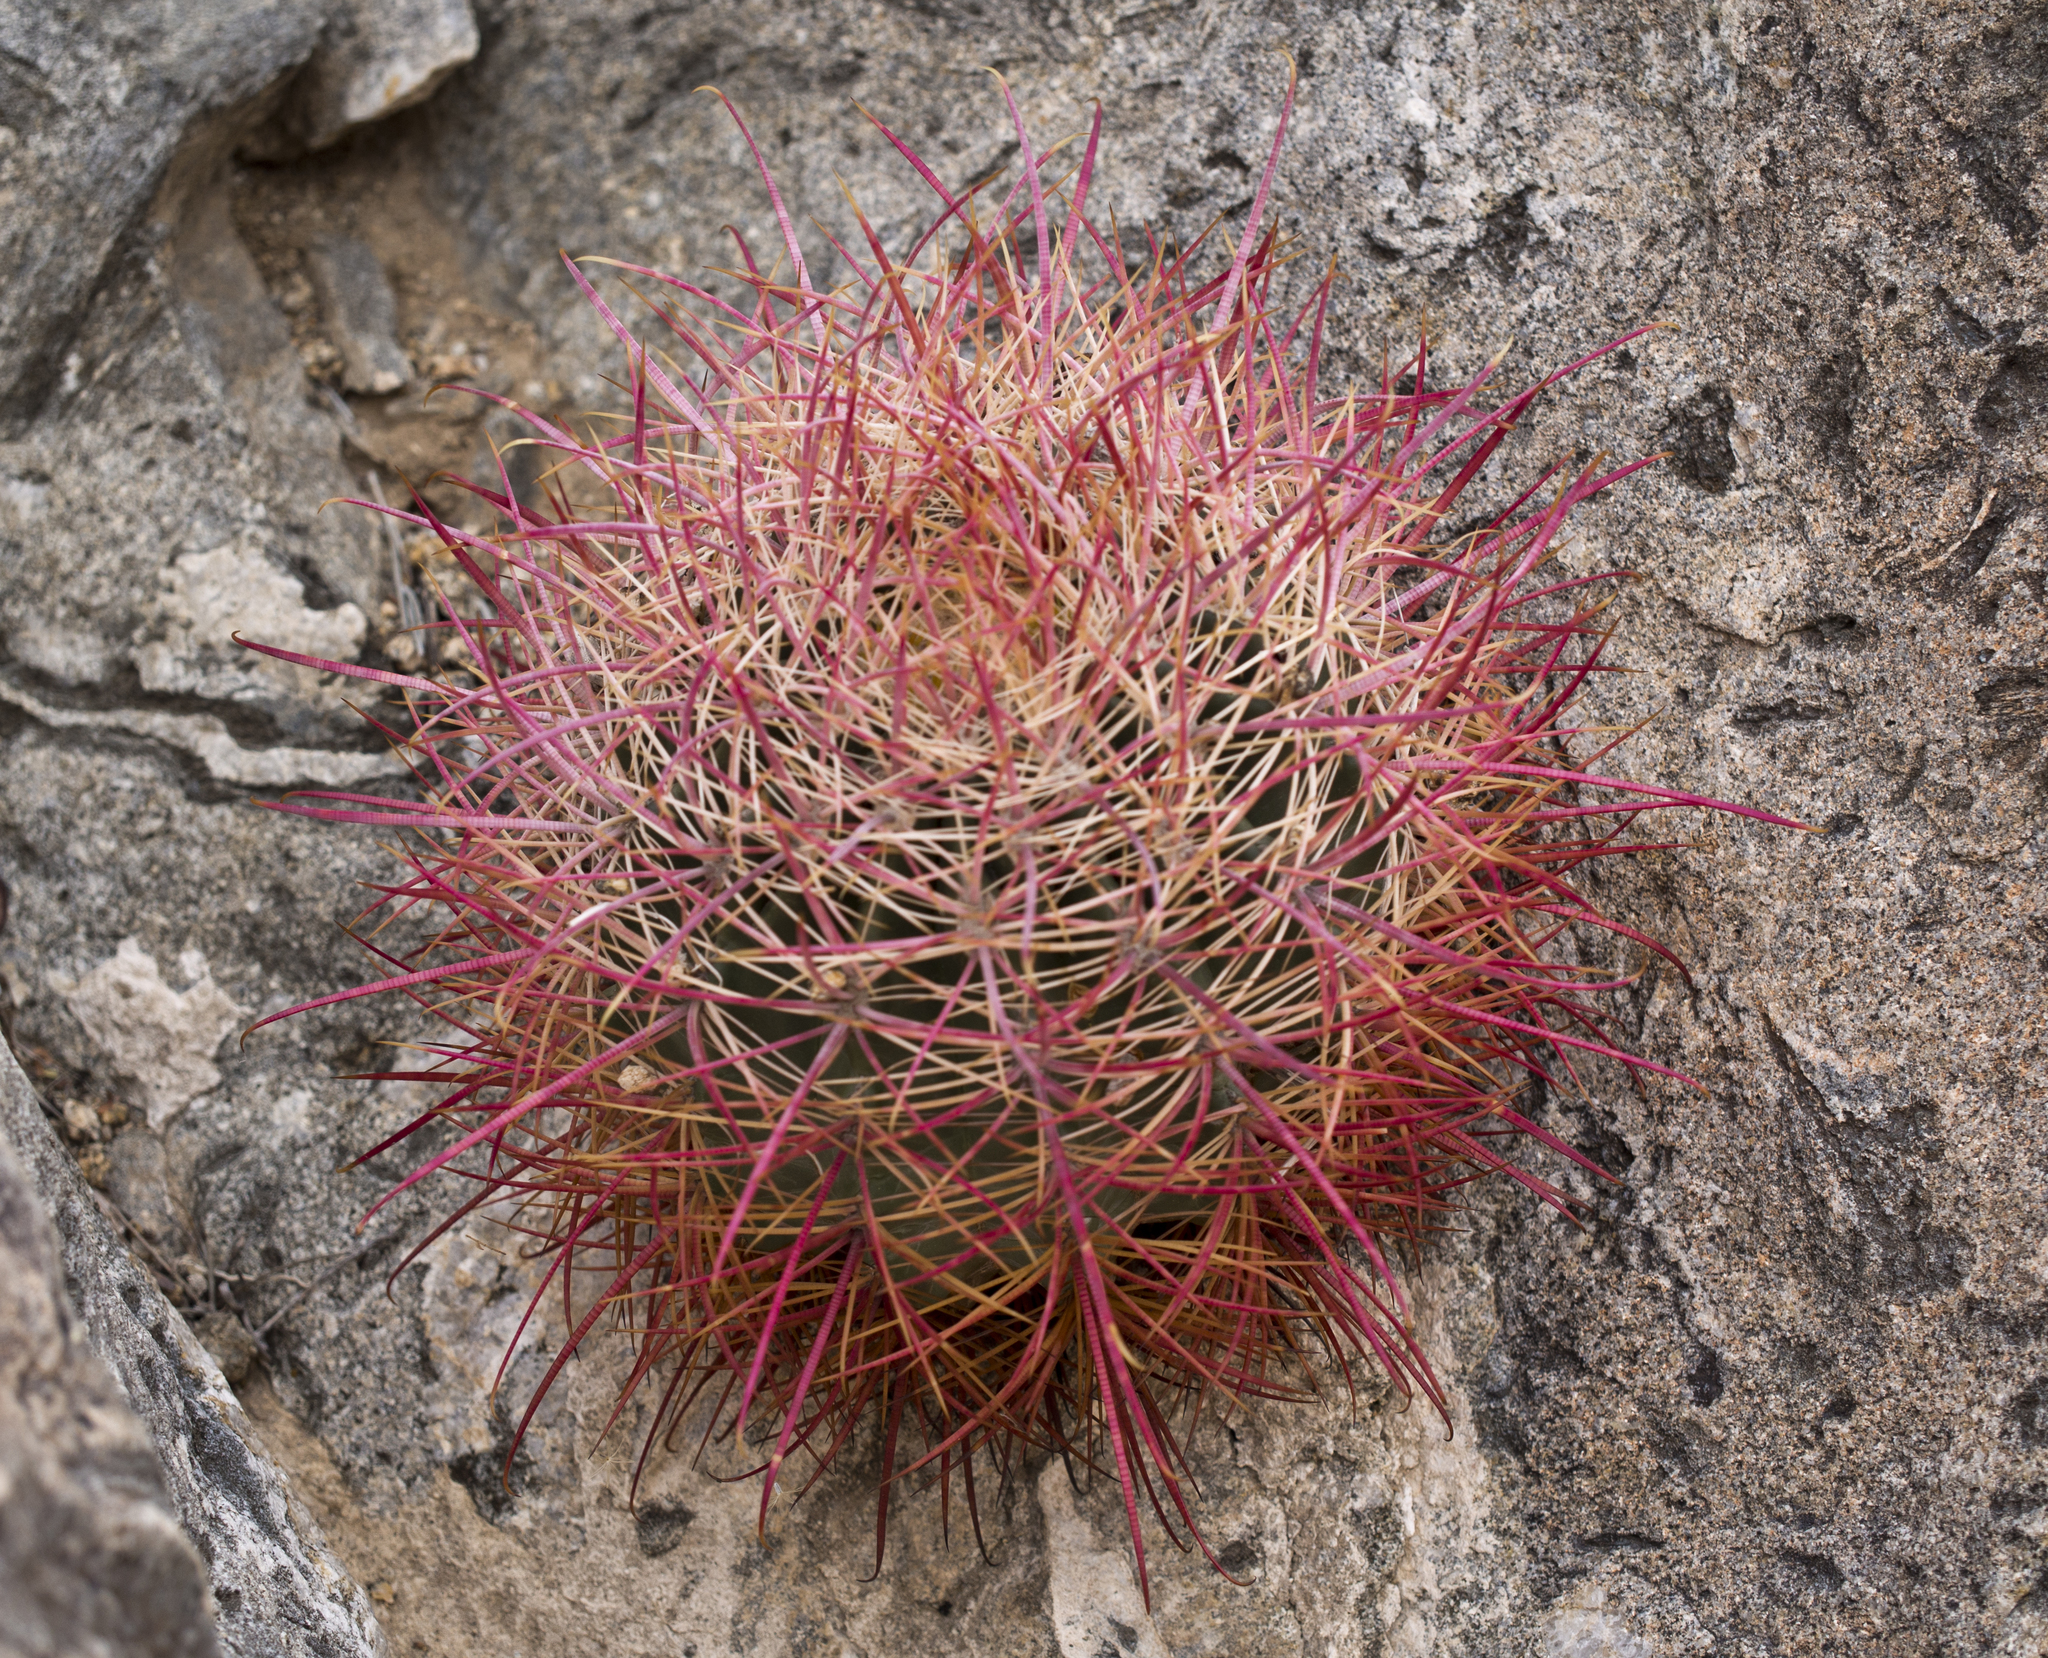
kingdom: Plantae
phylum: Tracheophyta
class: Magnoliopsida
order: Caryophyllales
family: Cactaceae
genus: Ferocactus
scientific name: Ferocactus cylindraceus
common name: California barrel cactus
